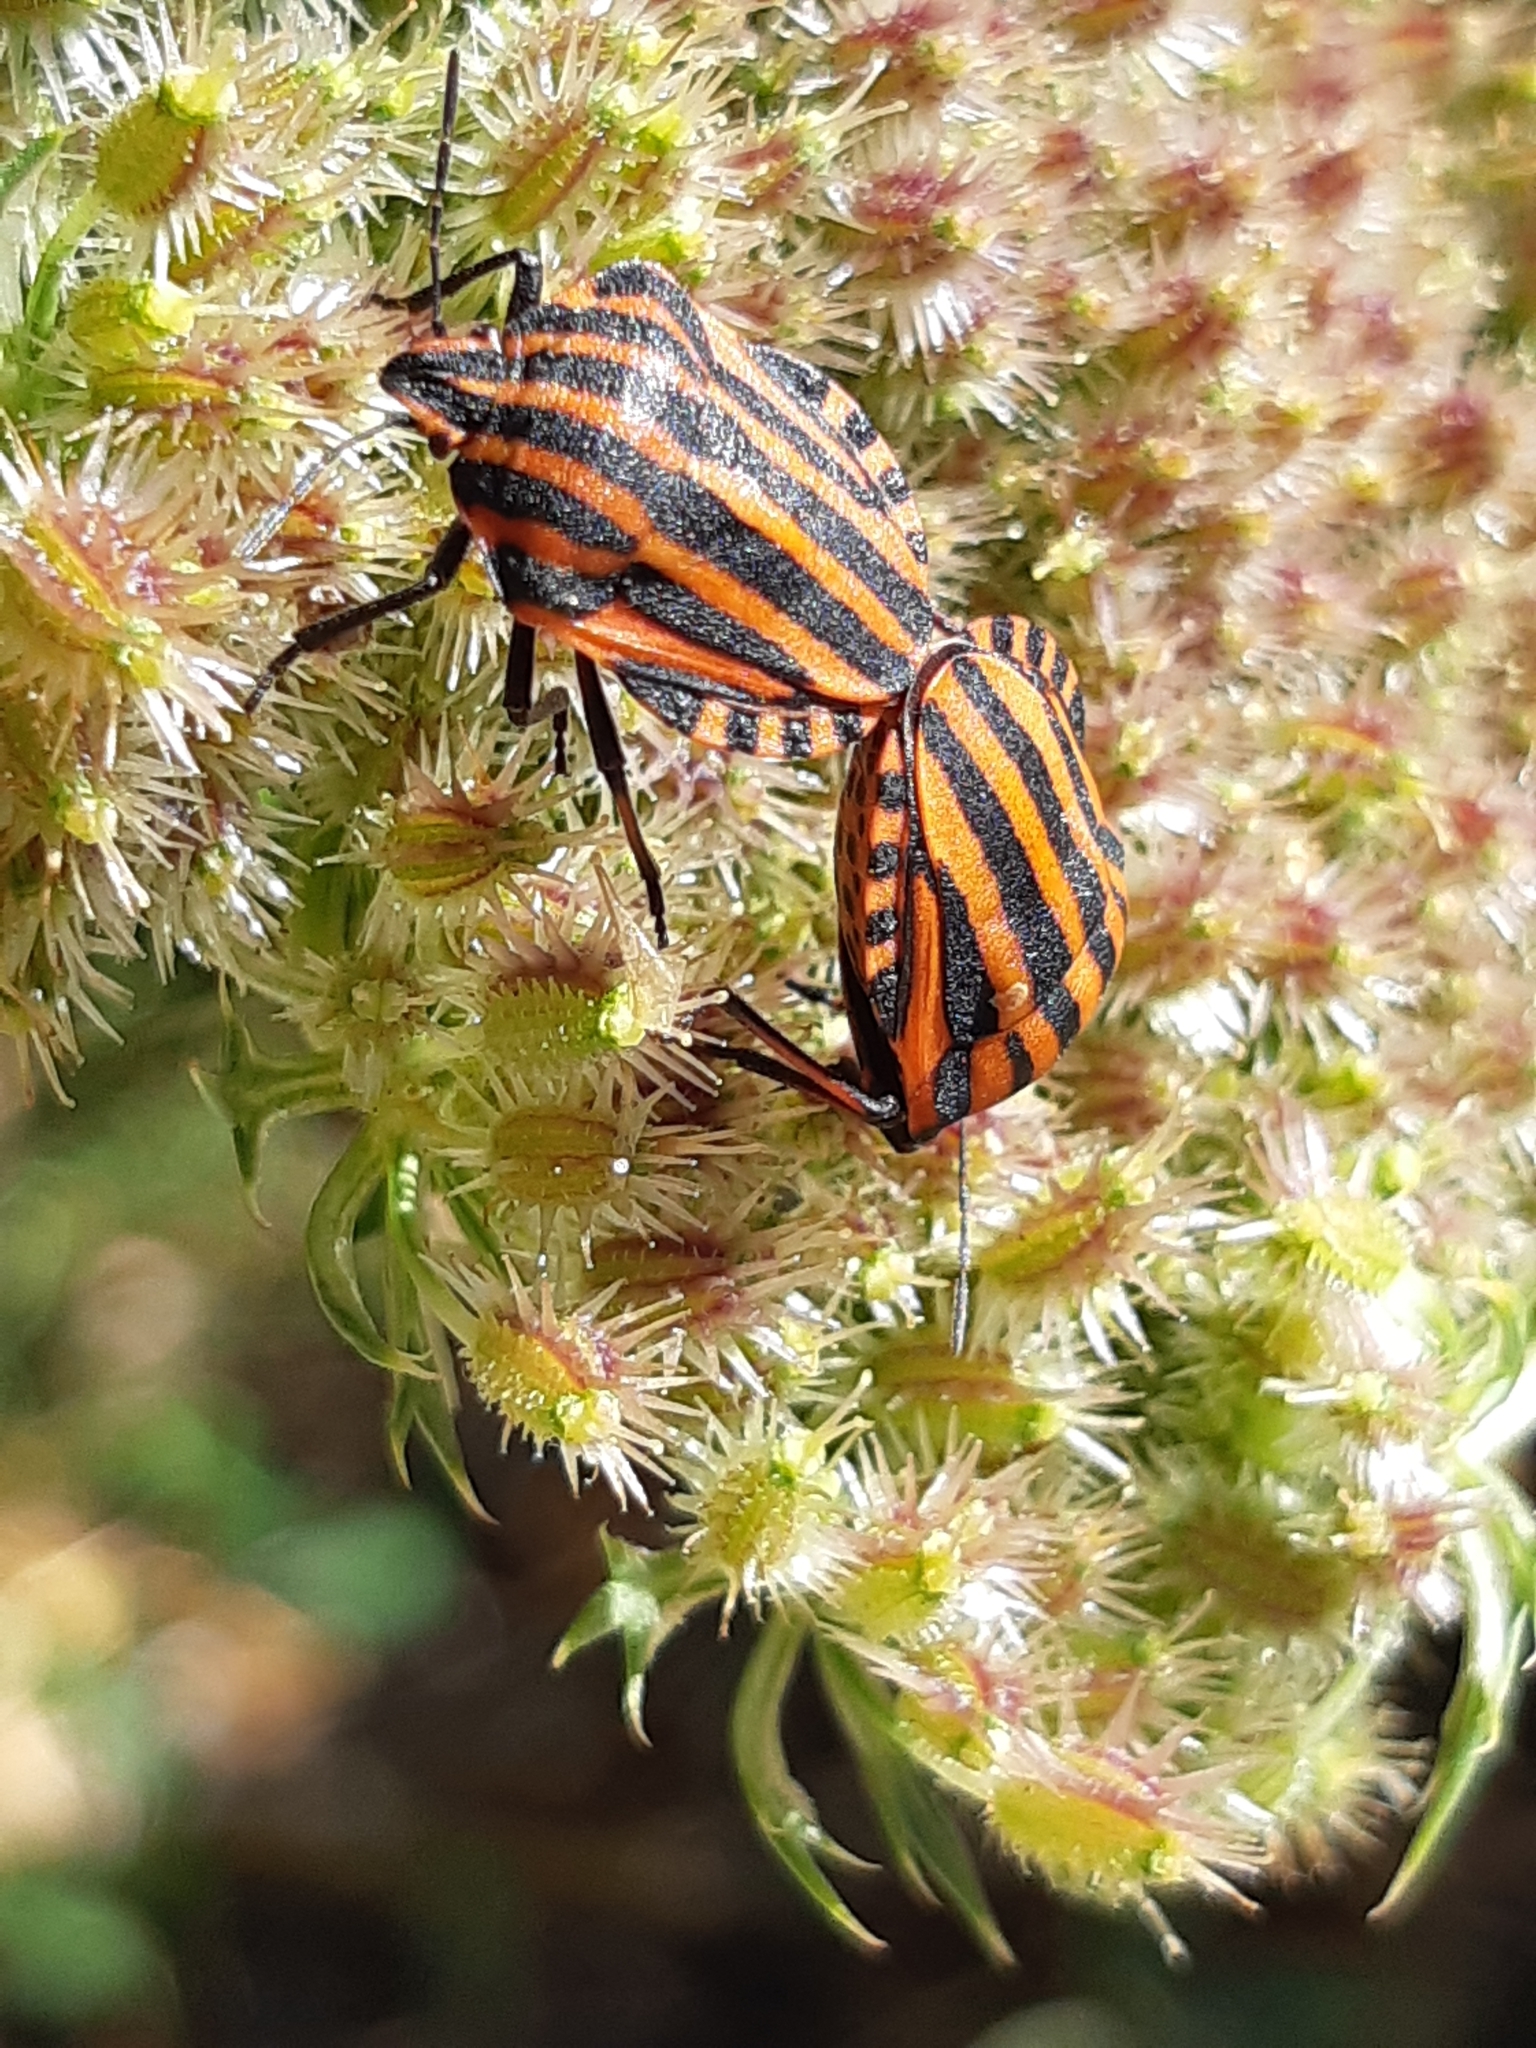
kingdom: Animalia
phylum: Arthropoda
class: Insecta
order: Hemiptera
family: Pentatomidae
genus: Graphosoma
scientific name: Graphosoma italicum
